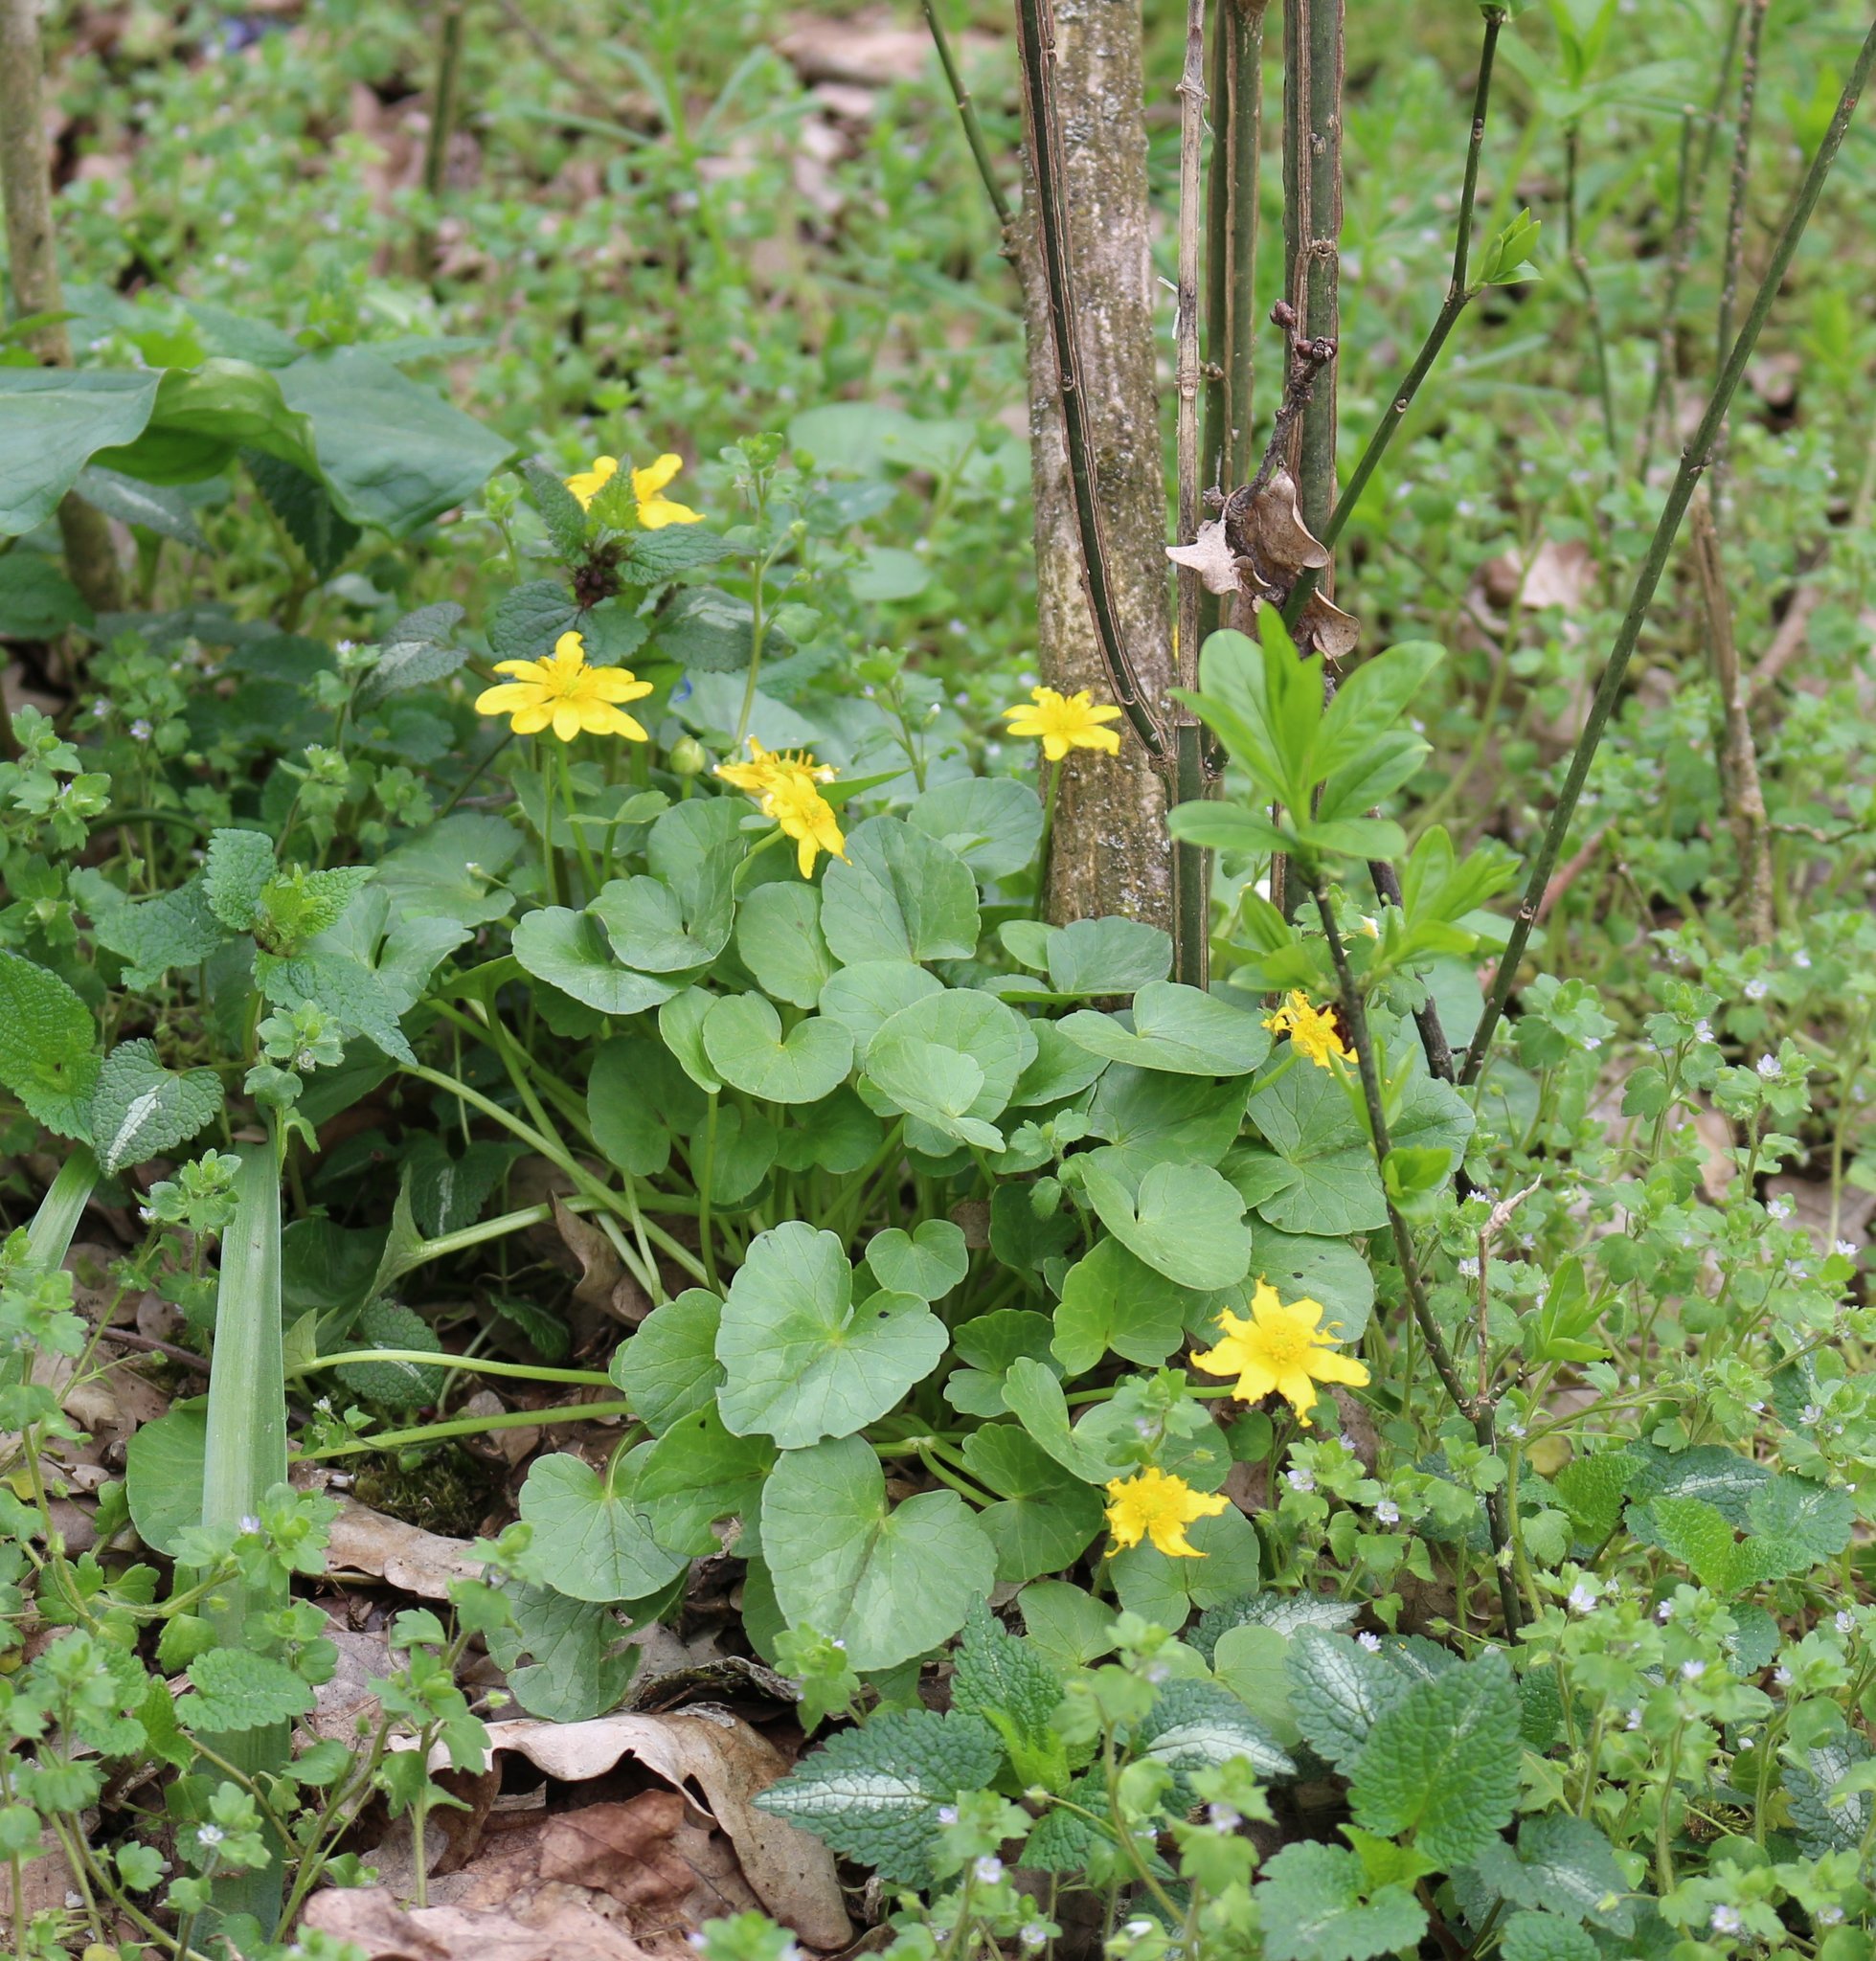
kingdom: Plantae
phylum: Tracheophyta
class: Magnoliopsida
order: Ranunculales
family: Ranunculaceae
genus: Ficaria
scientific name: Ficaria verna
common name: Lesser celandine
